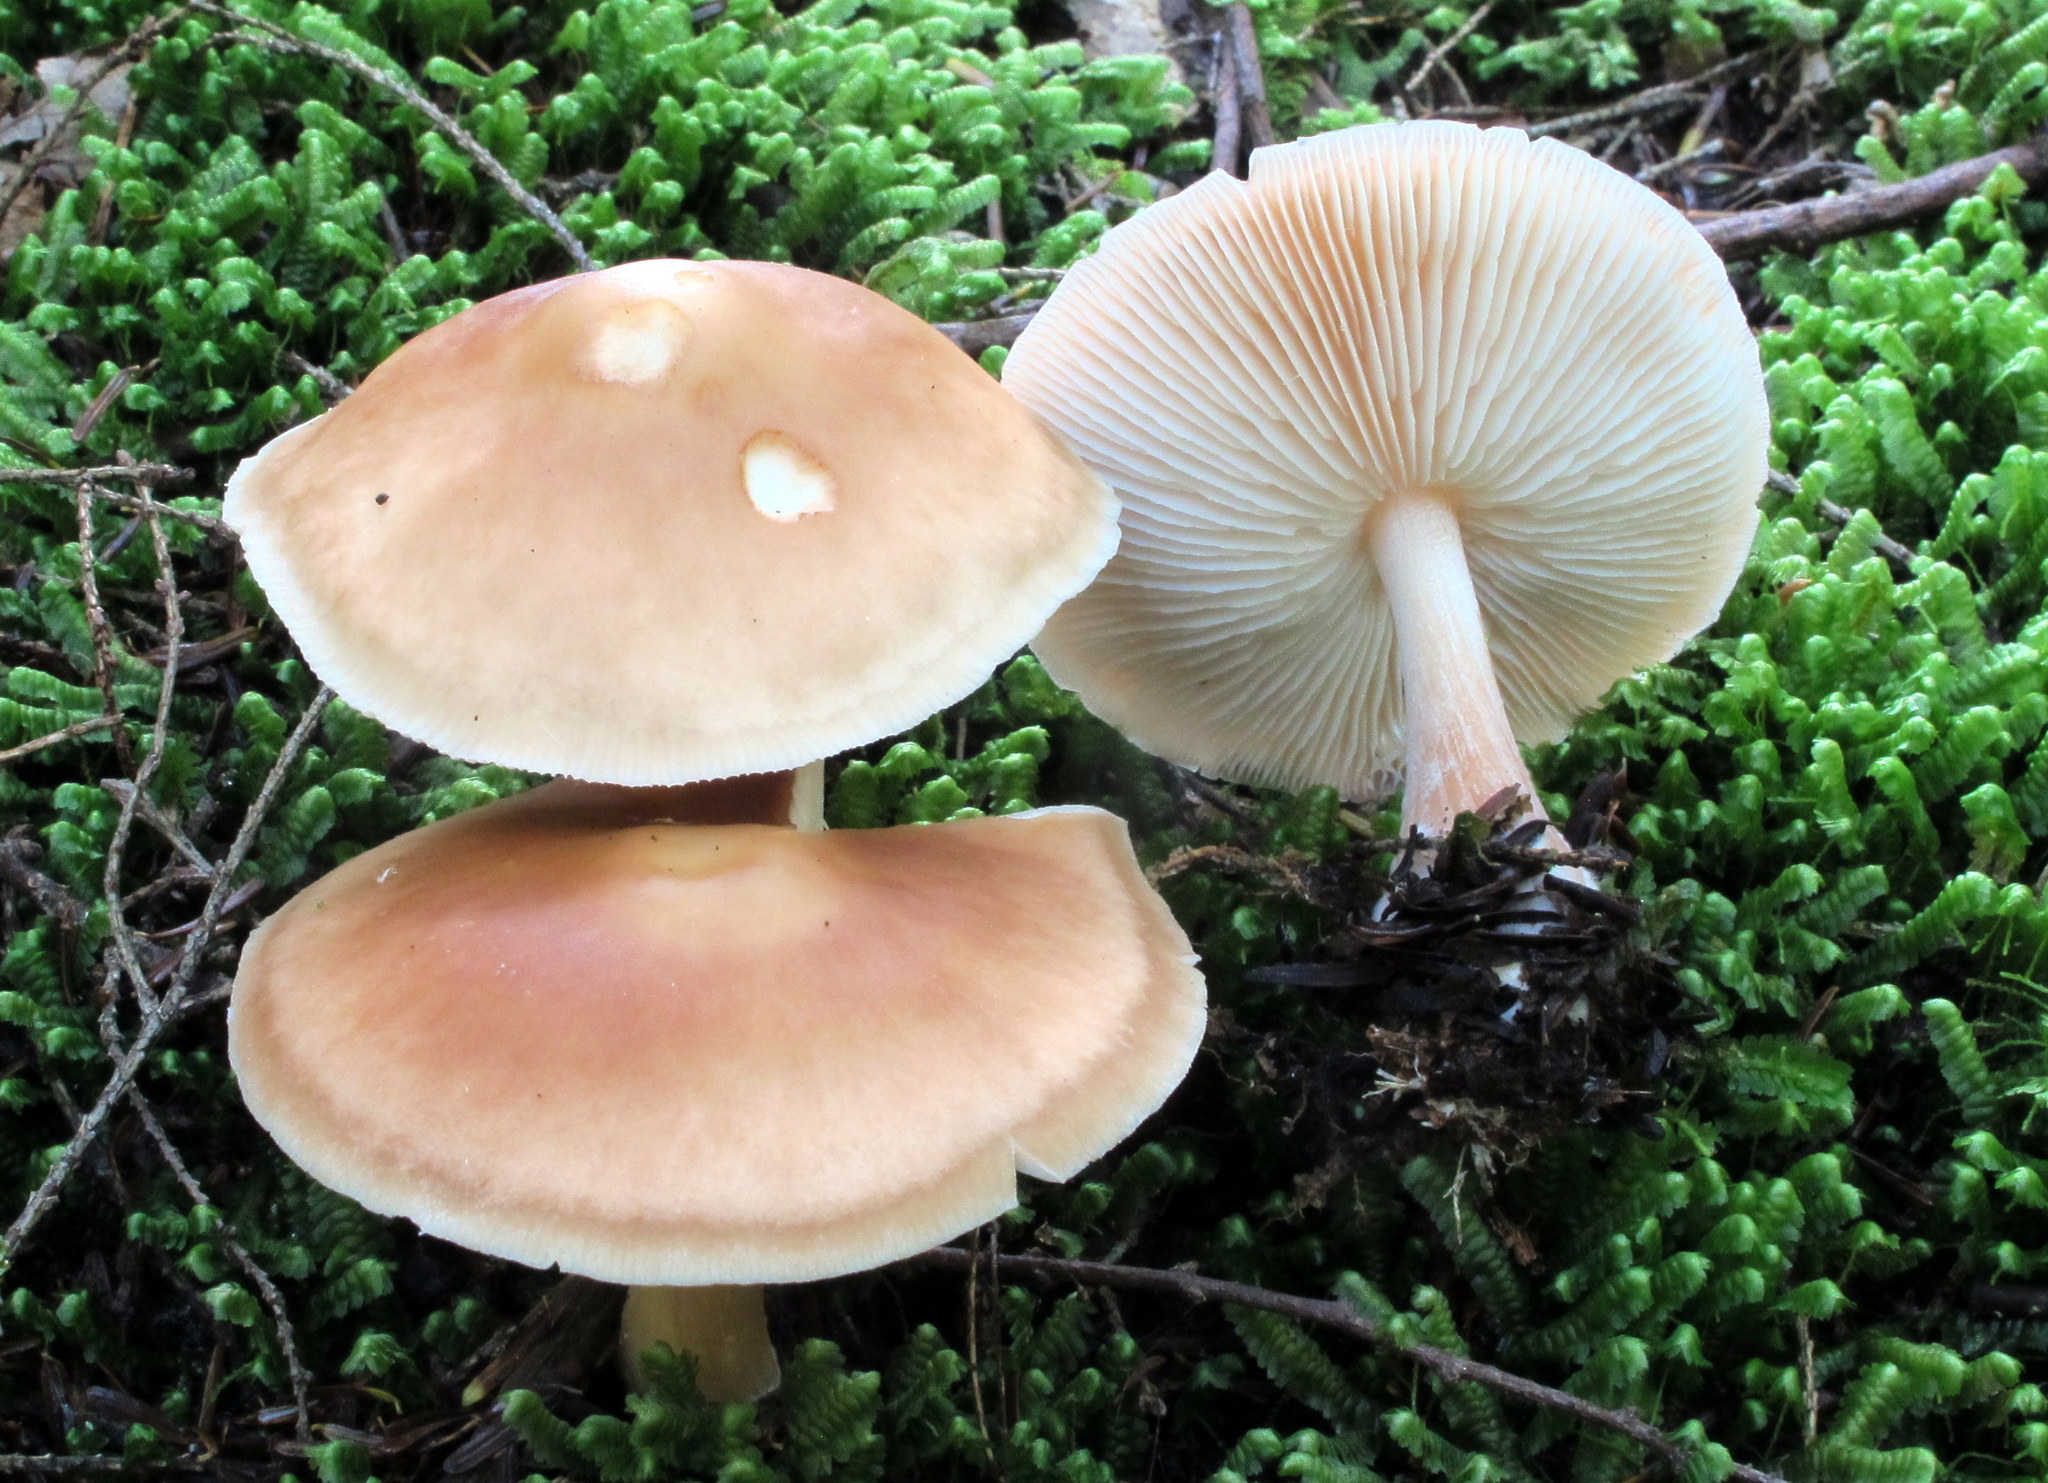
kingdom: Fungi
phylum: Basidiomycota
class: Agaricomycetes
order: Agaricales
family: Omphalotaceae
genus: Rhodocollybia
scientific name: Rhodocollybia butyracea
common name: Butter cap
